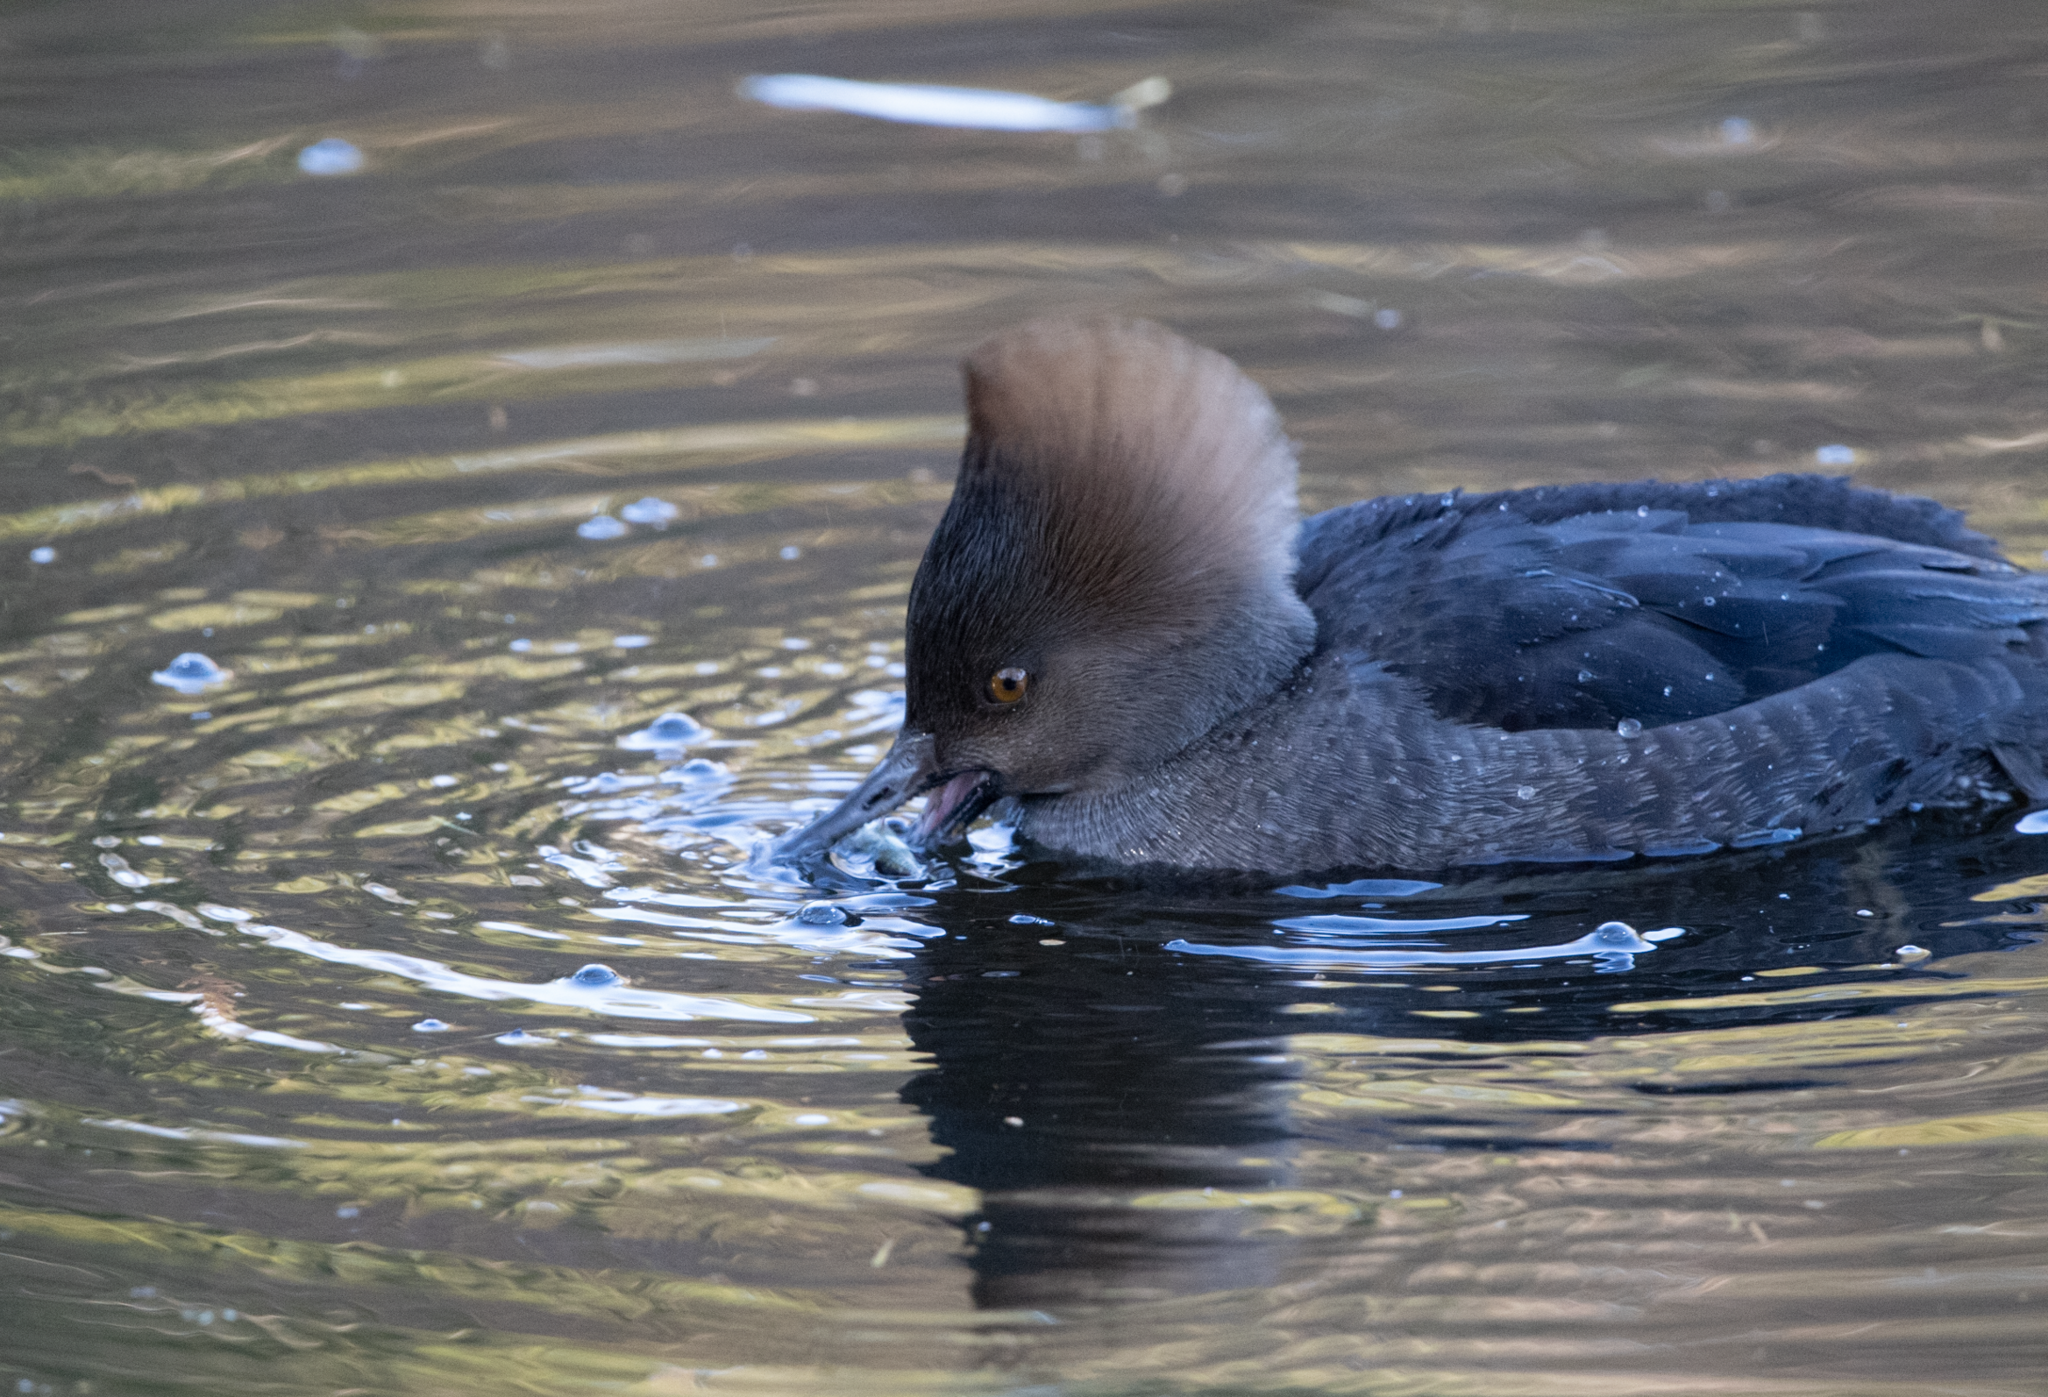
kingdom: Animalia
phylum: Chordata
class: Aves
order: Anseriformes
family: Anatidae
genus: Lophodytes
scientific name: Lophodytes cucullatus
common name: Hooded merganser
